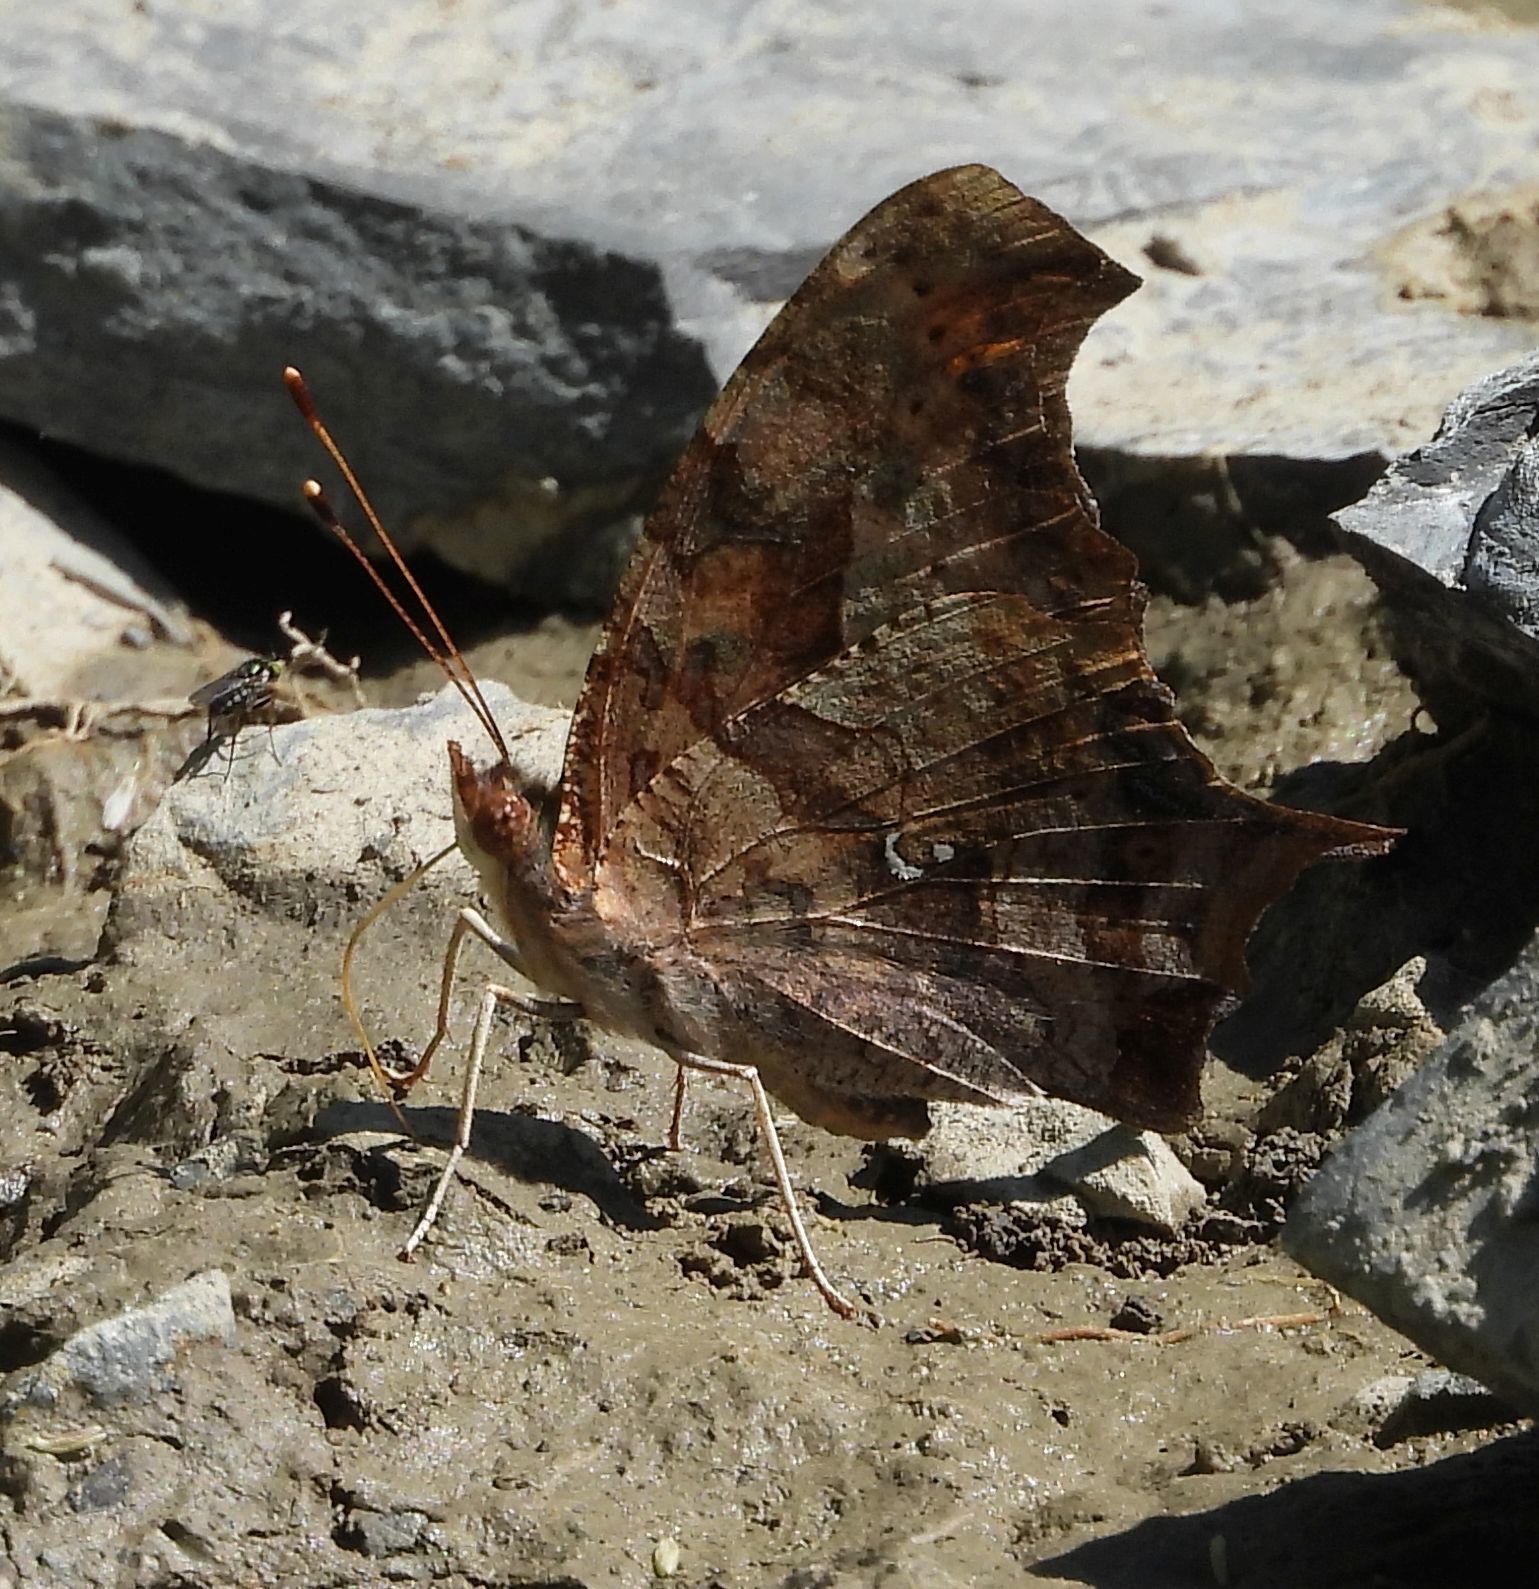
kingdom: Animalia
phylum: Arthropoda
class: Insecta
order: Lepidoptera
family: Nymphalidae
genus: Polygonia
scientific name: Polygonia interrogationis
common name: Question mark
